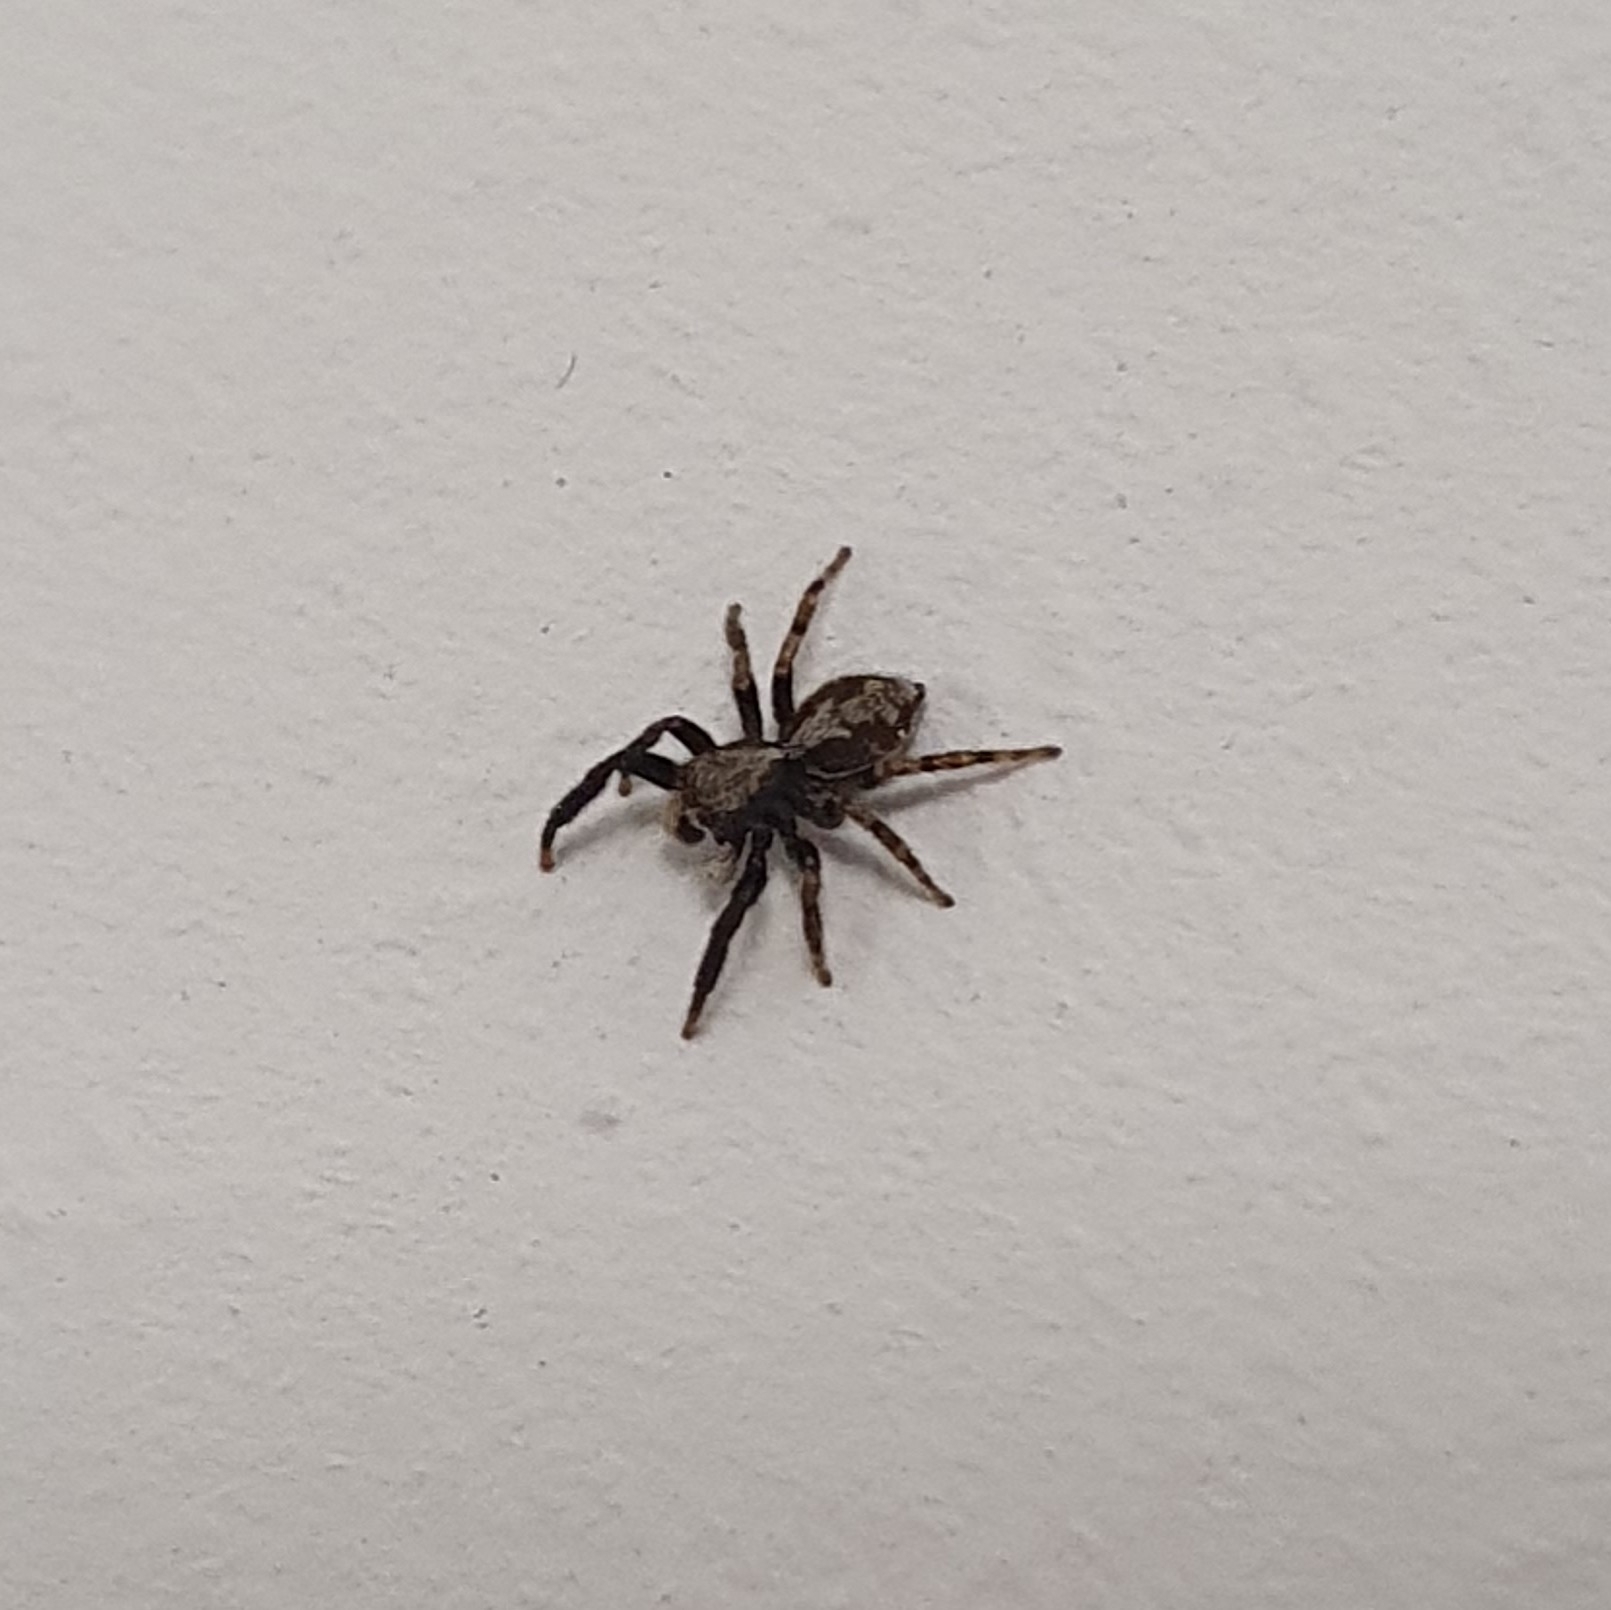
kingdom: Animalia
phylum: Arthropoda
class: Arachnida
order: Araneae
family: Salticidae
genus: Pseudeuophrys
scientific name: Pseudeuophrys lanigera
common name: Jumping spider
